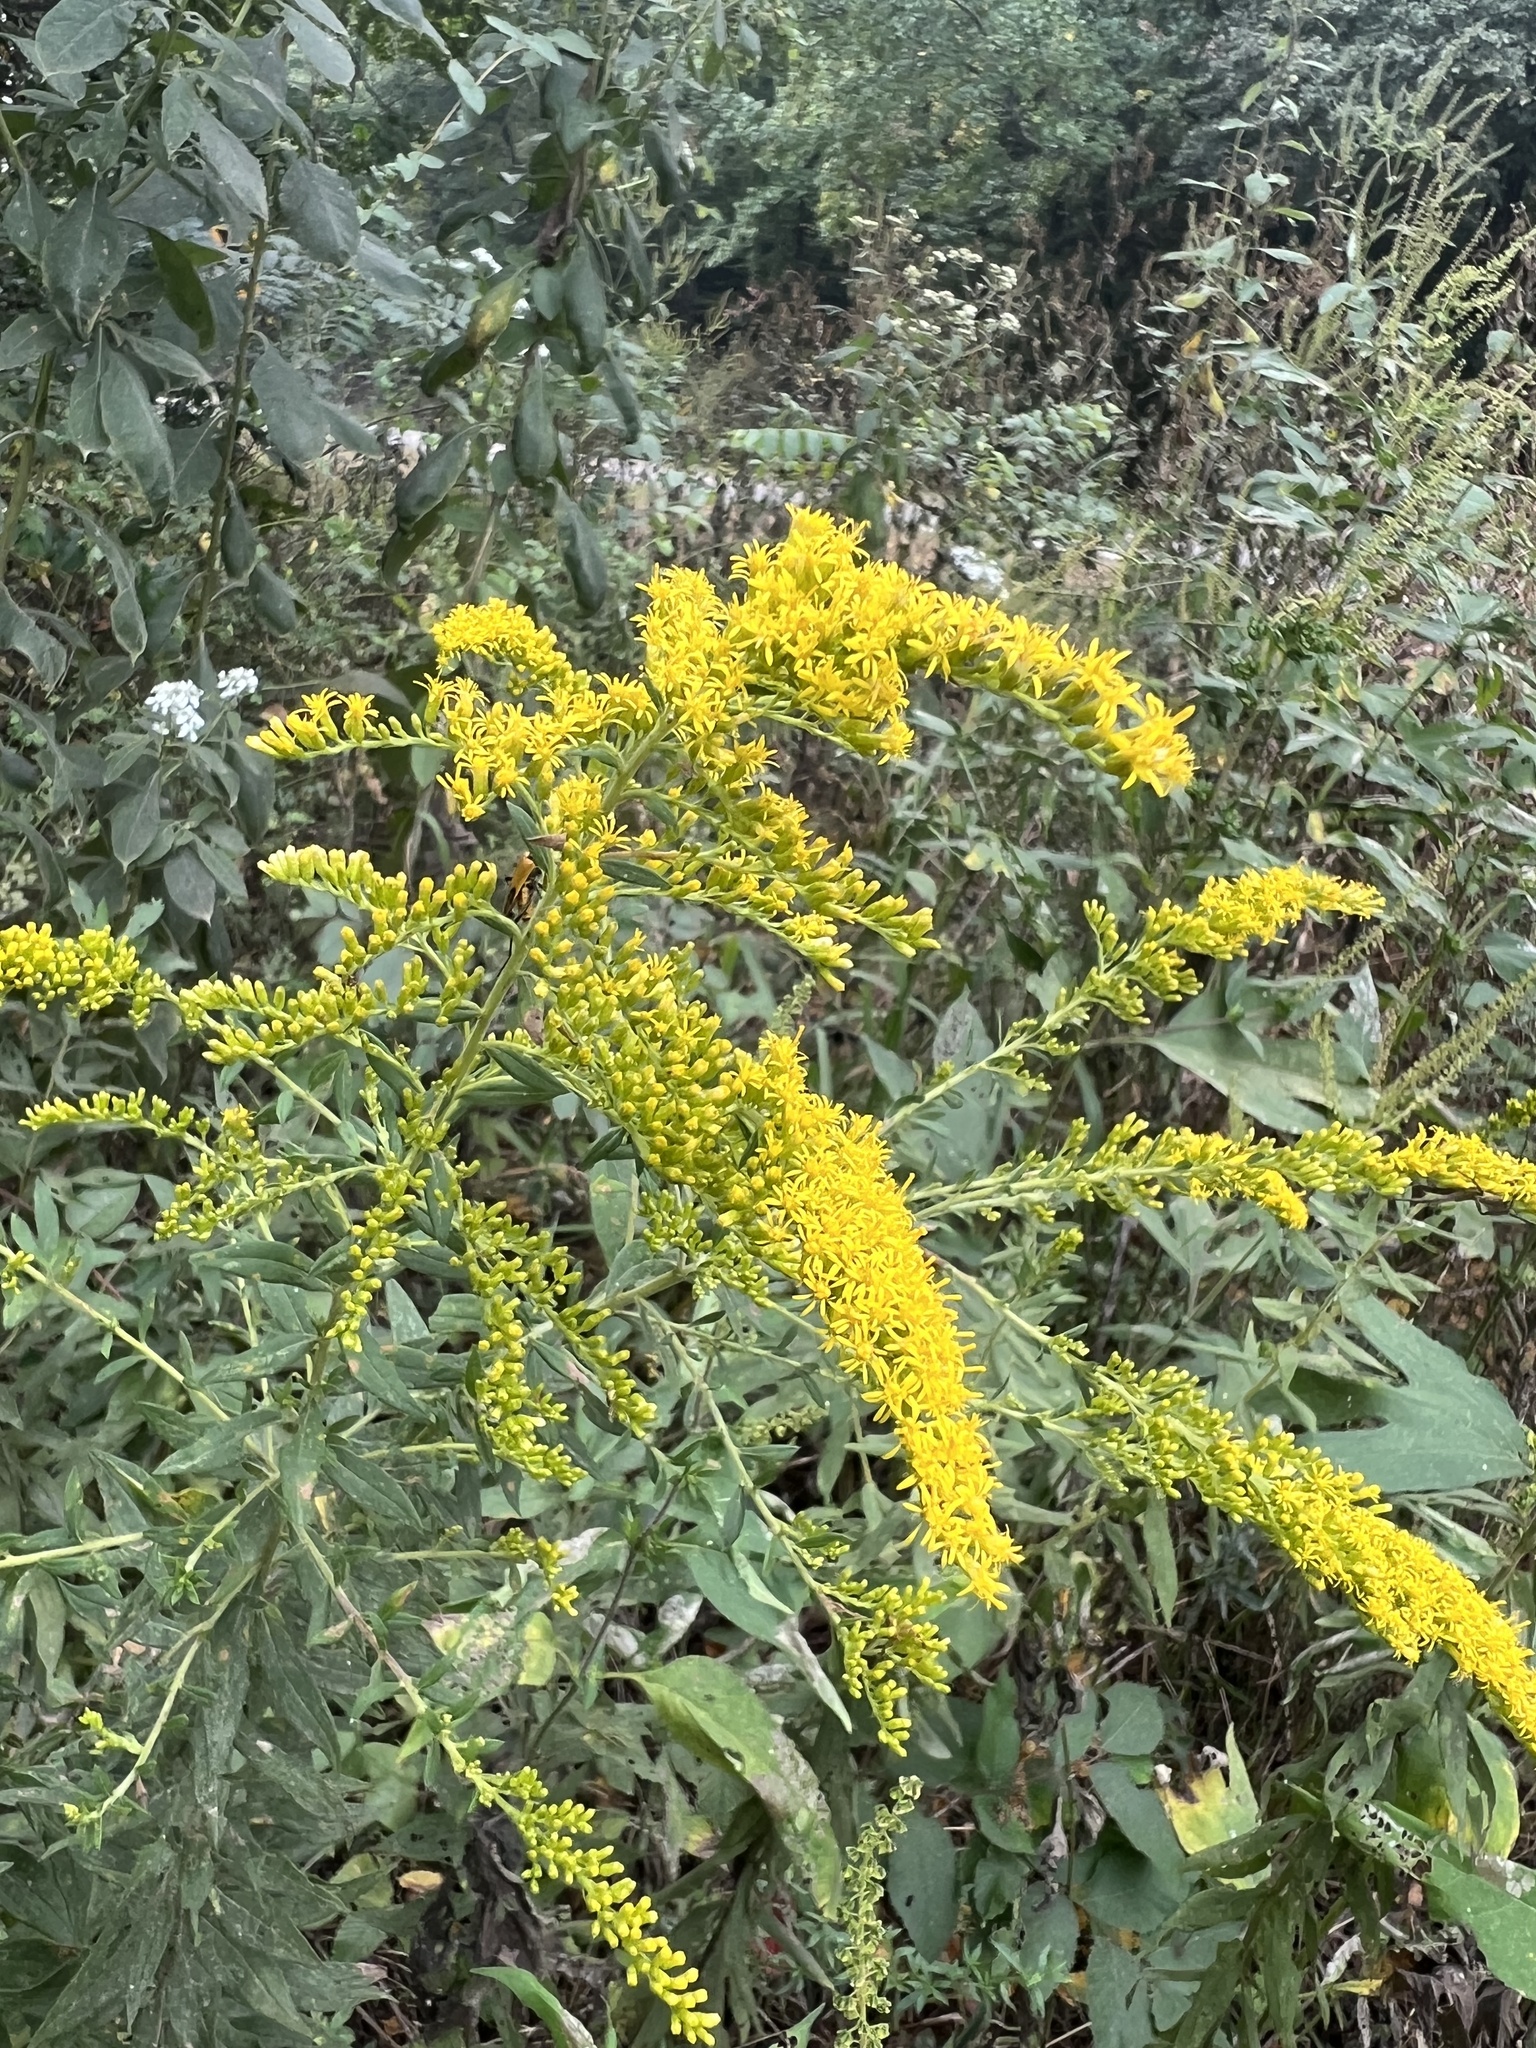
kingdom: Plantae
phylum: Tracheophyta
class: Magnoliopsida
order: Asterales
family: Asteraceae
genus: Solidago
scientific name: Solidago altissima
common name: Late goldenrod
